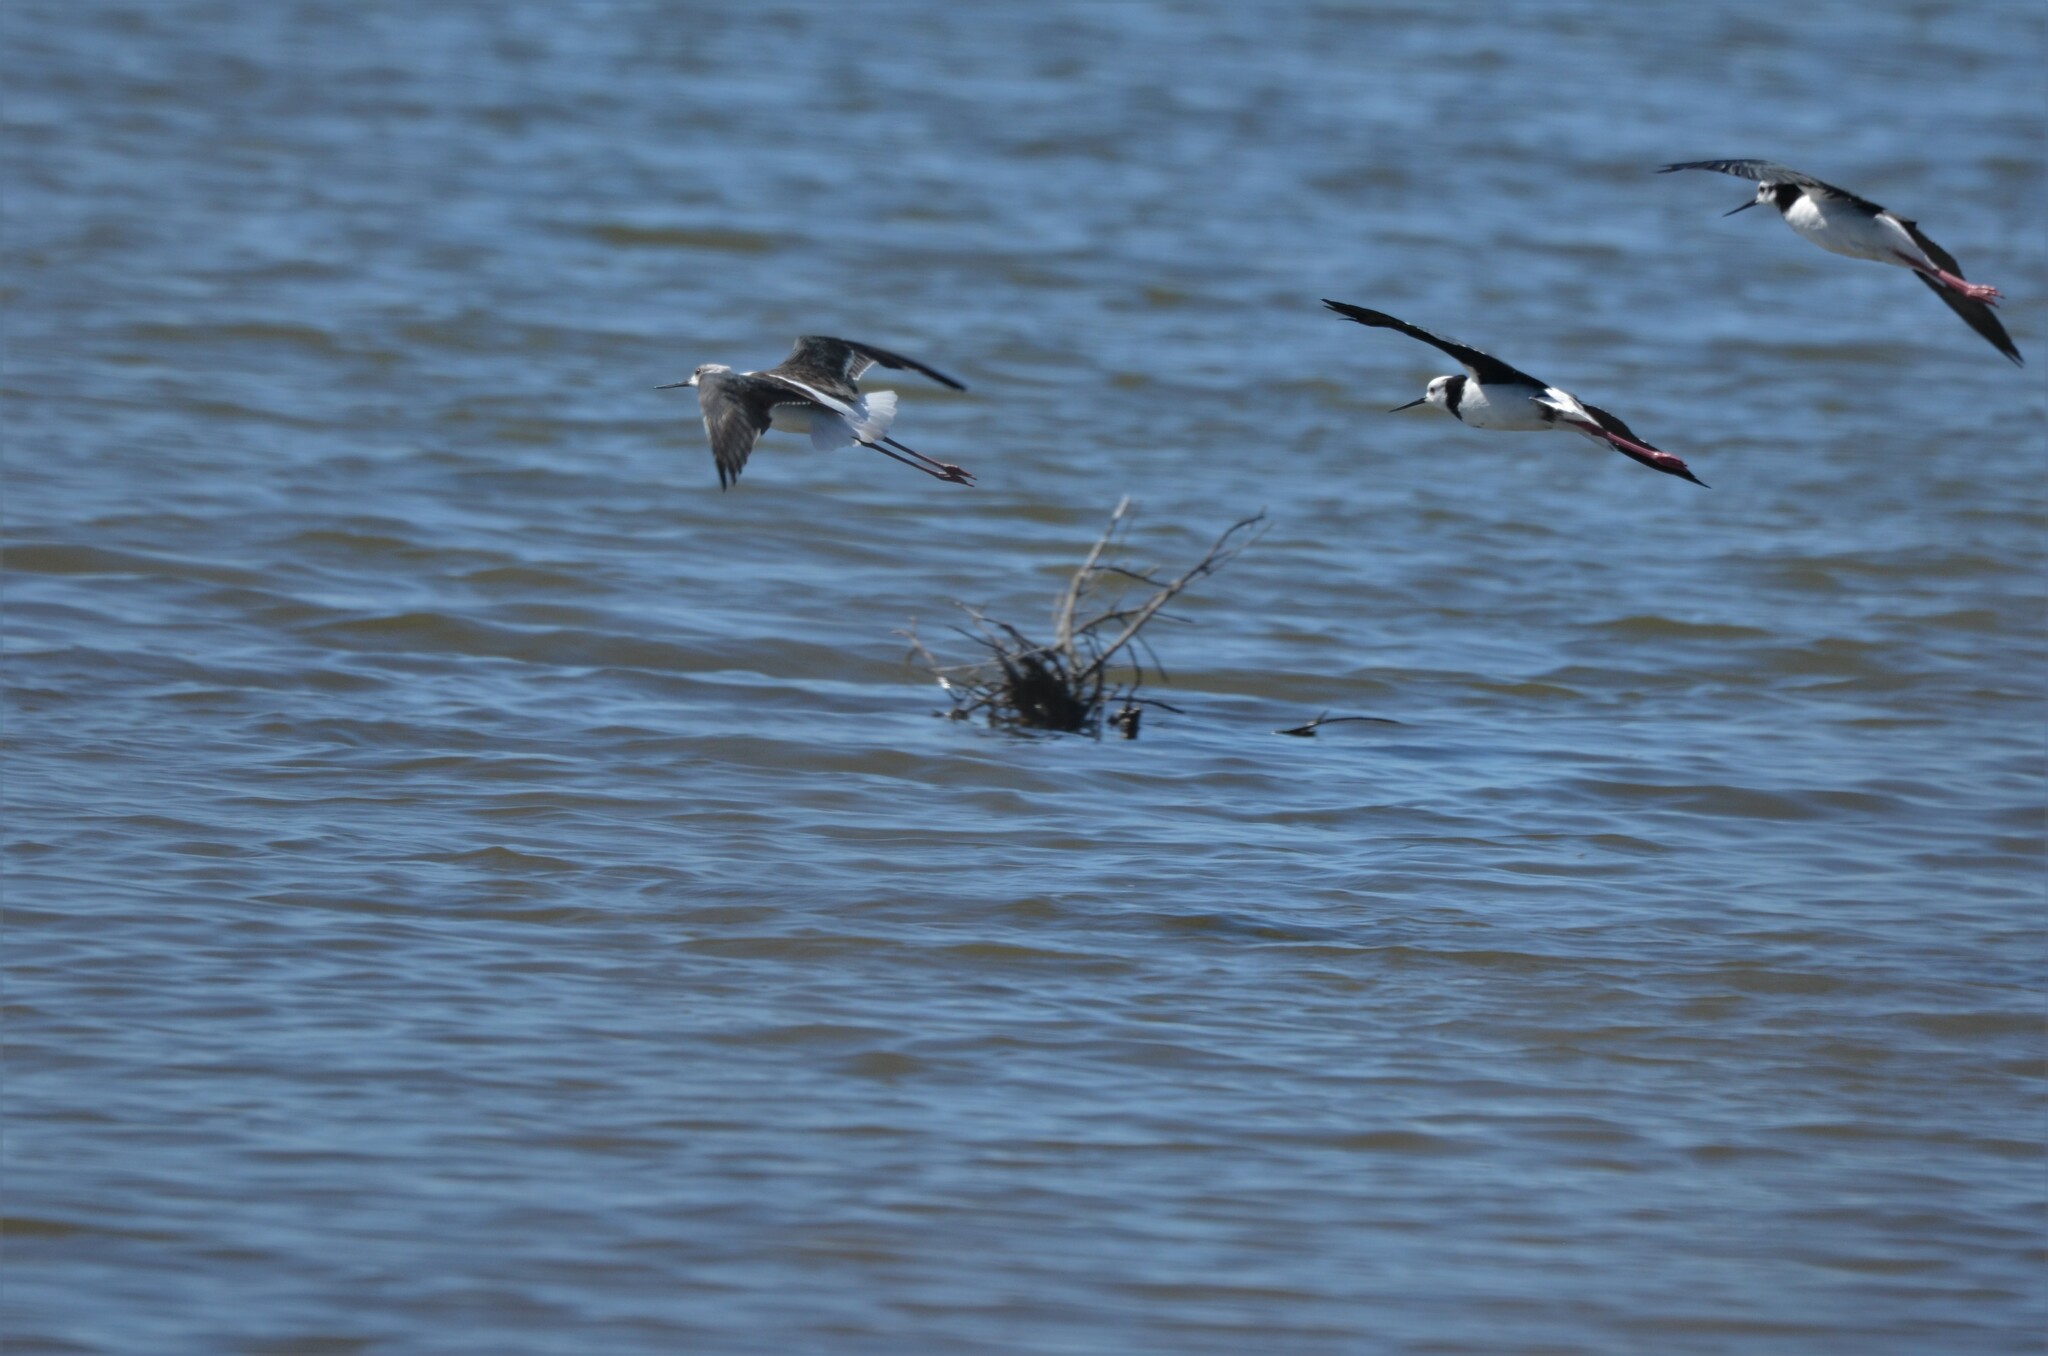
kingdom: Animalia
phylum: Chordata
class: Aves
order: Charadriiformes
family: Recurvirostridae
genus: Himantopus
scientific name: Himantopus leucocephalus
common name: White-headed stilt
